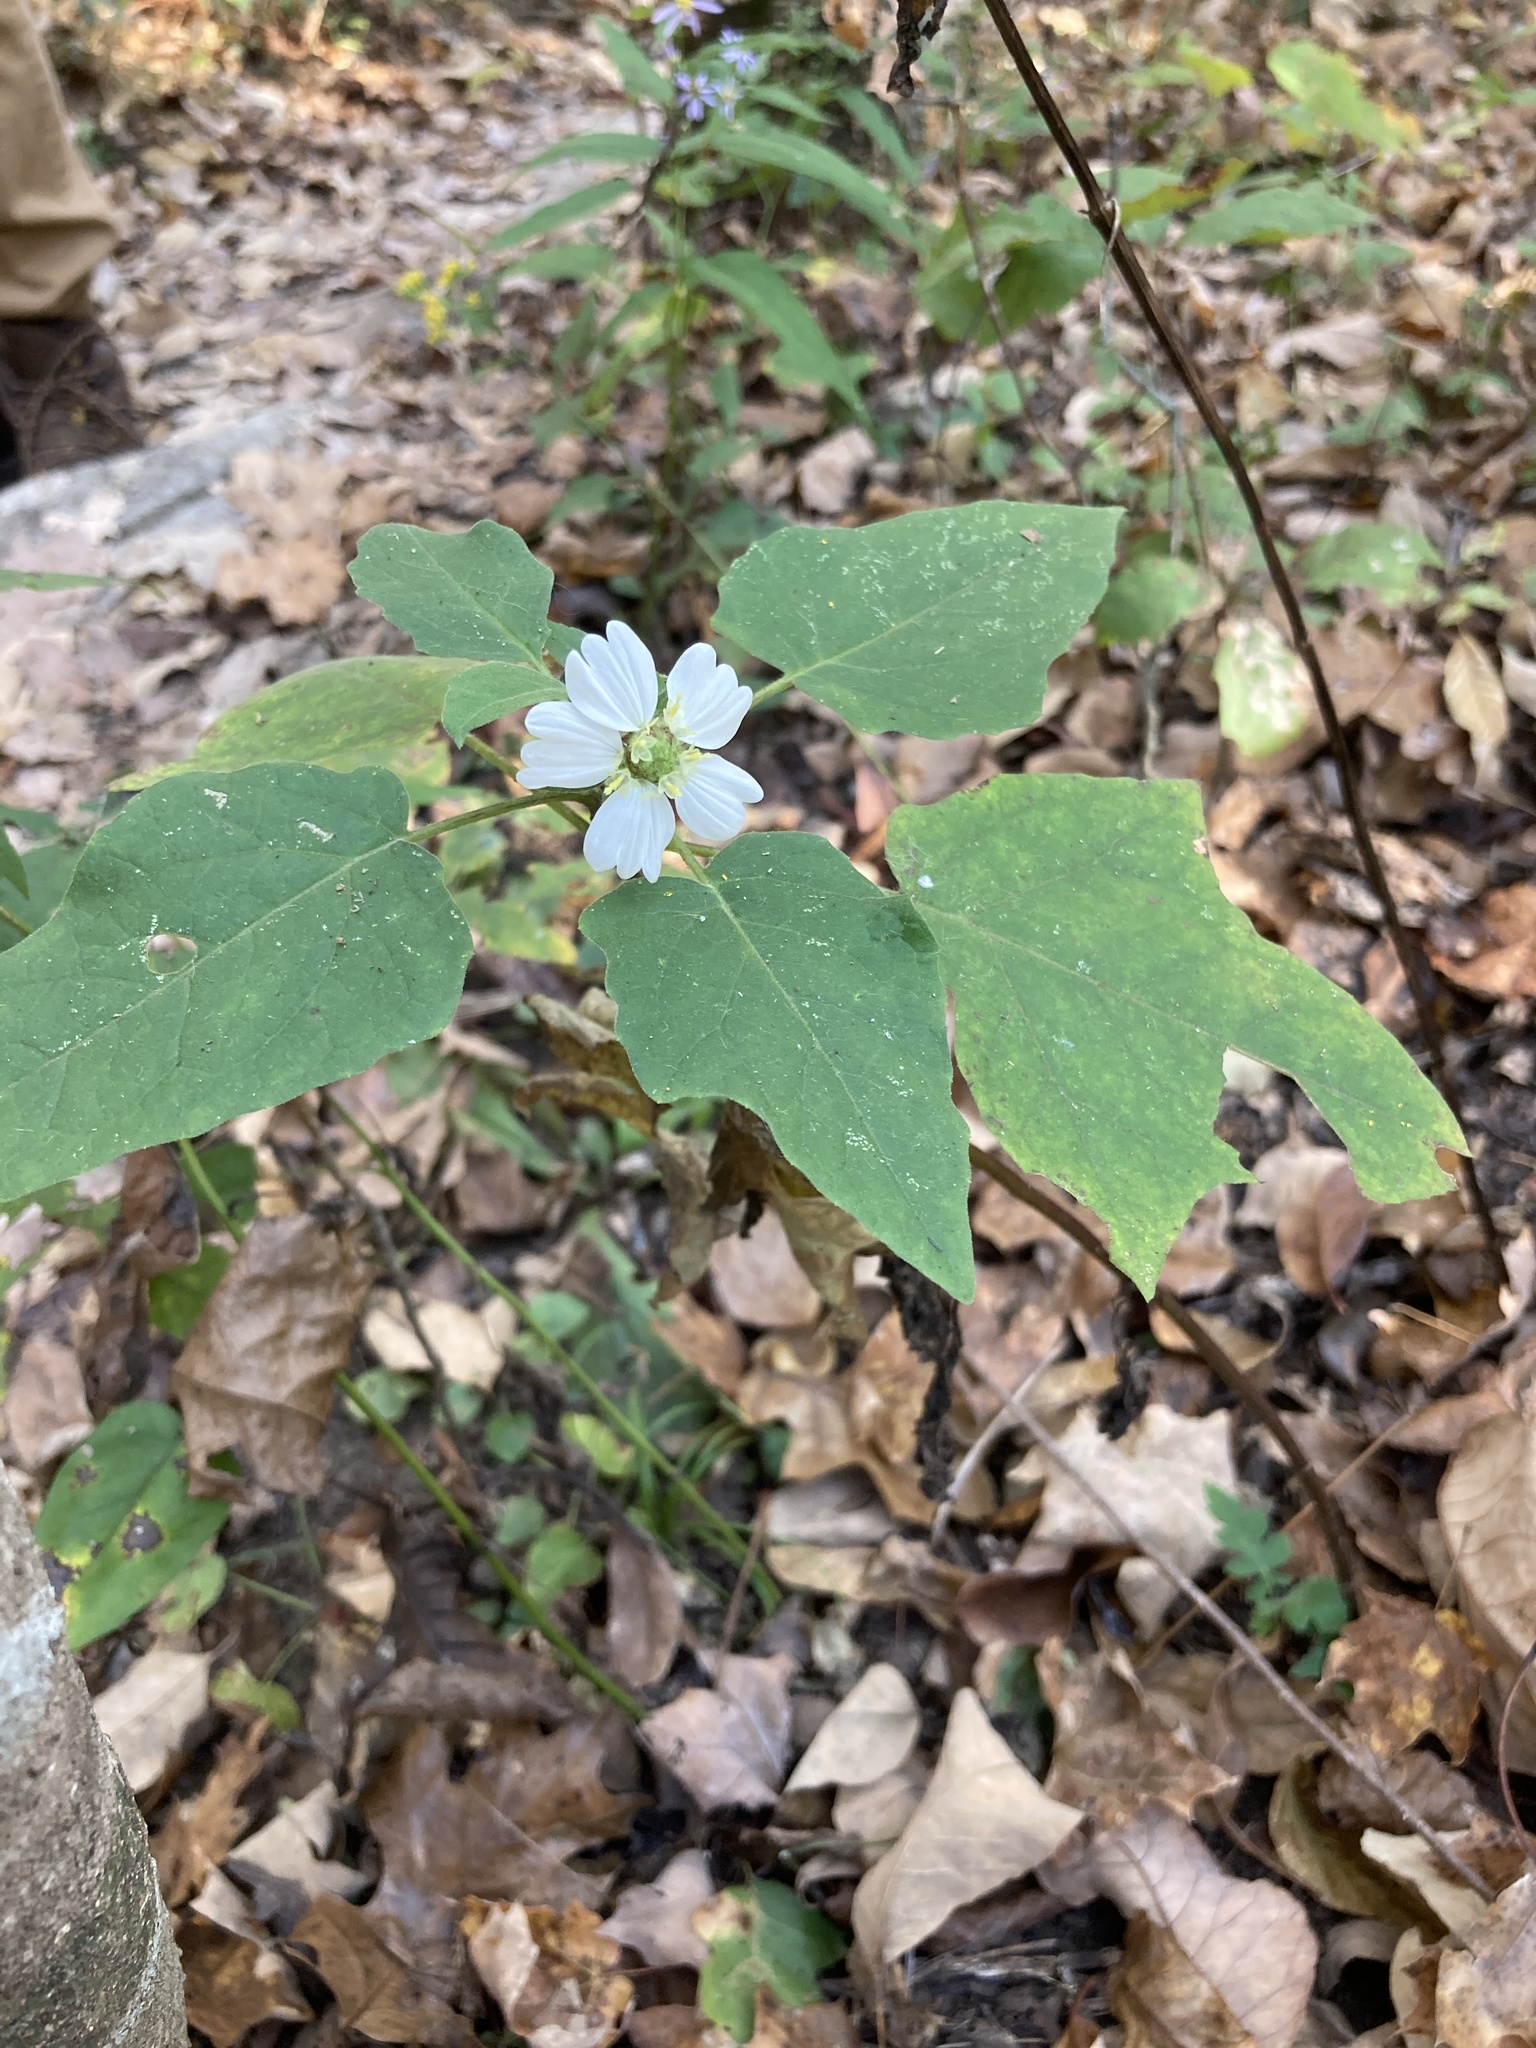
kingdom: Plantae
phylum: Tracheophyta
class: Magnoliopsida
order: Asterales
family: Asteraceae
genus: Polymnia
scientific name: Polymnia canadensis
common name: Pale-flowered leafcup
